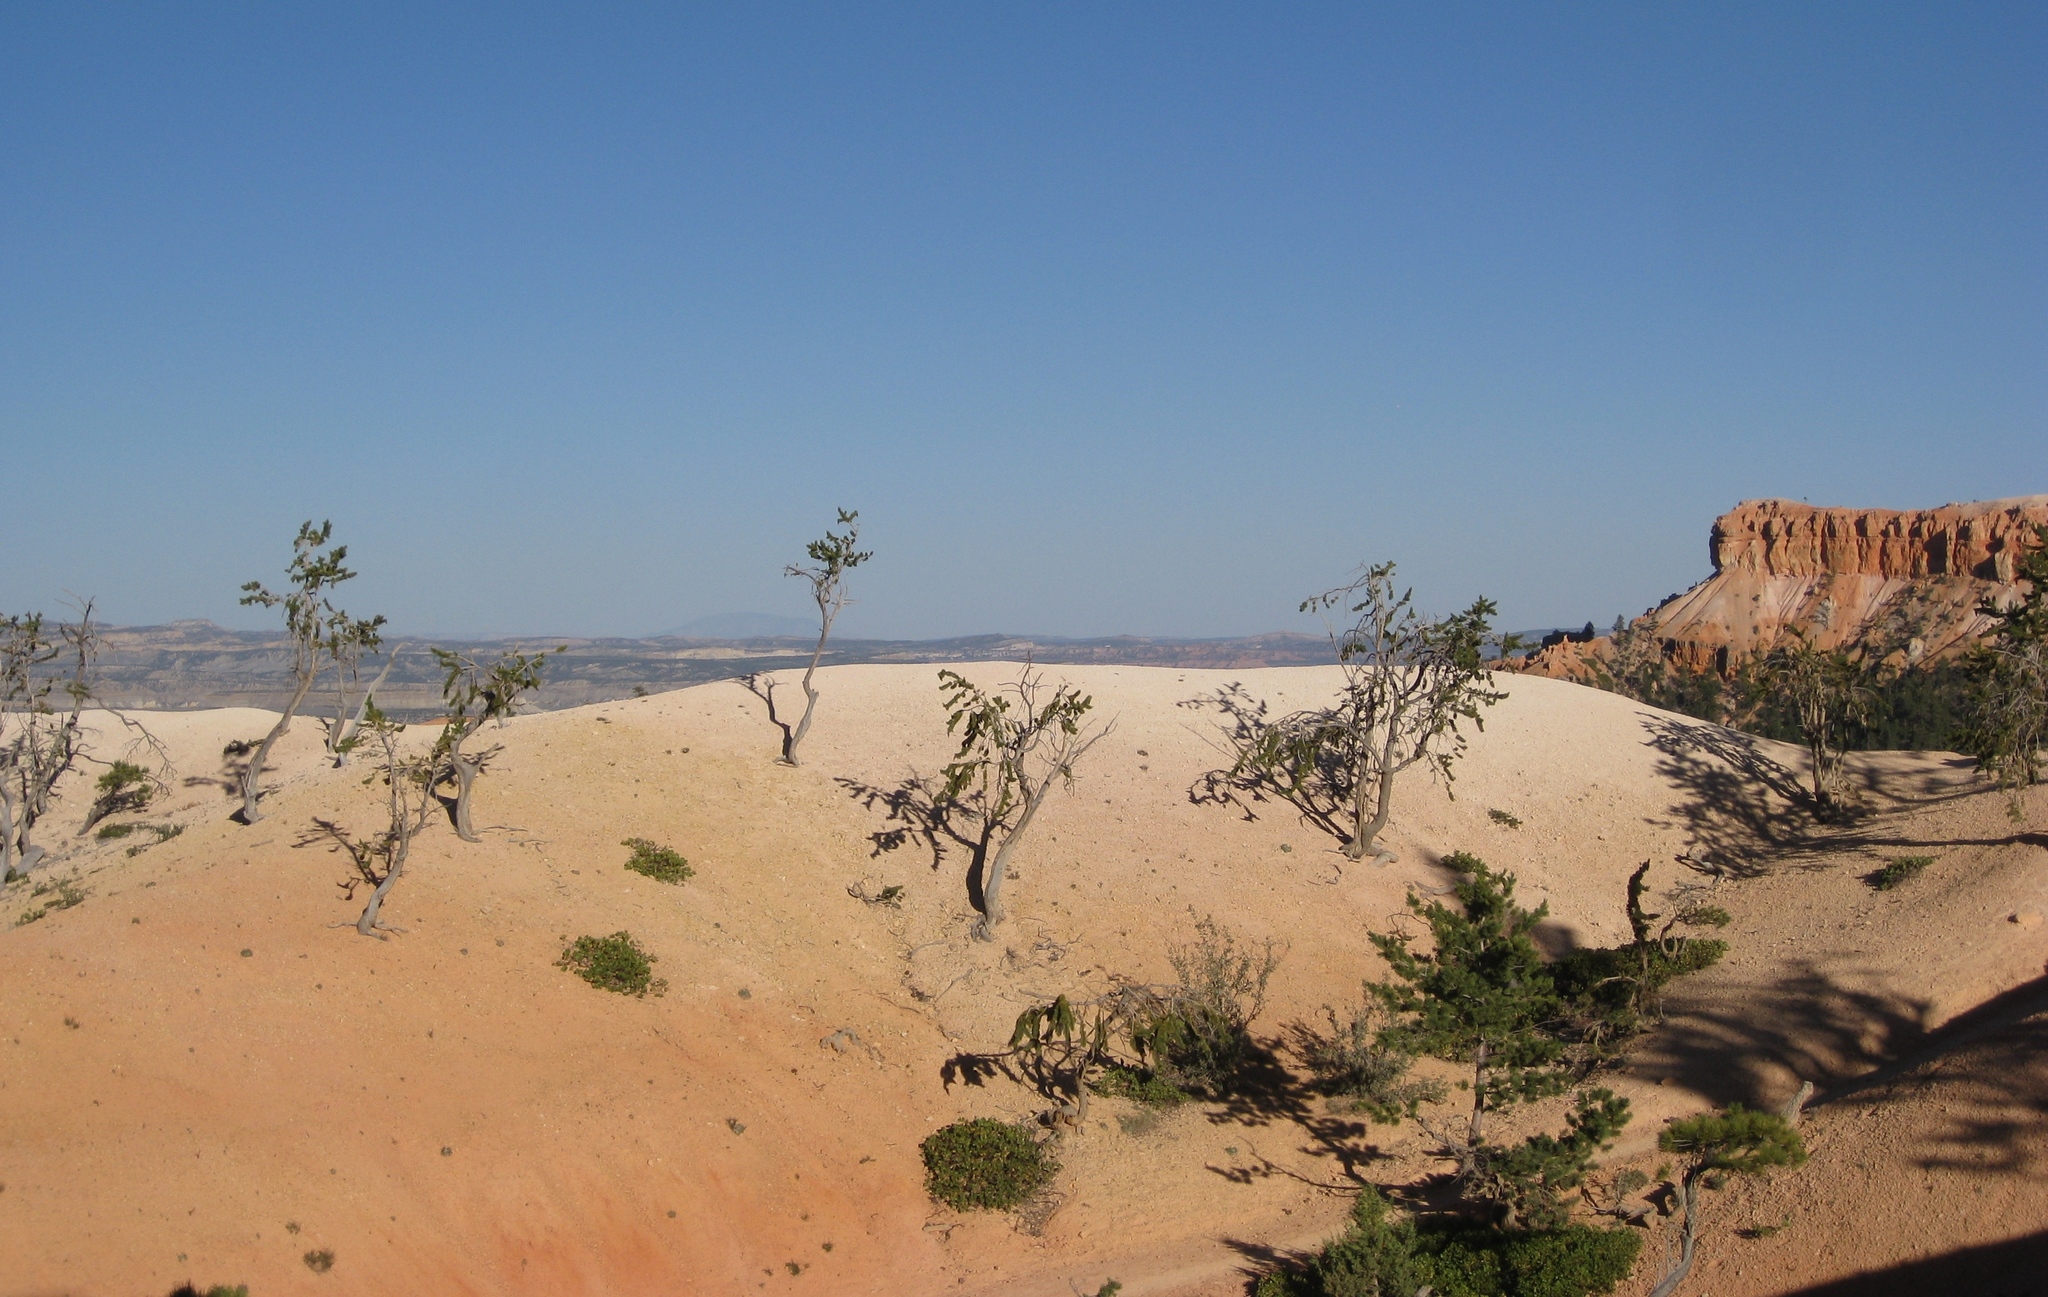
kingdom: Plantae
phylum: Tracheophyta
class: Pinopsida
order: Pinales
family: Pinaceae
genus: Pinus
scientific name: Pinus longaeva
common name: Intermountain bristlecone pine
